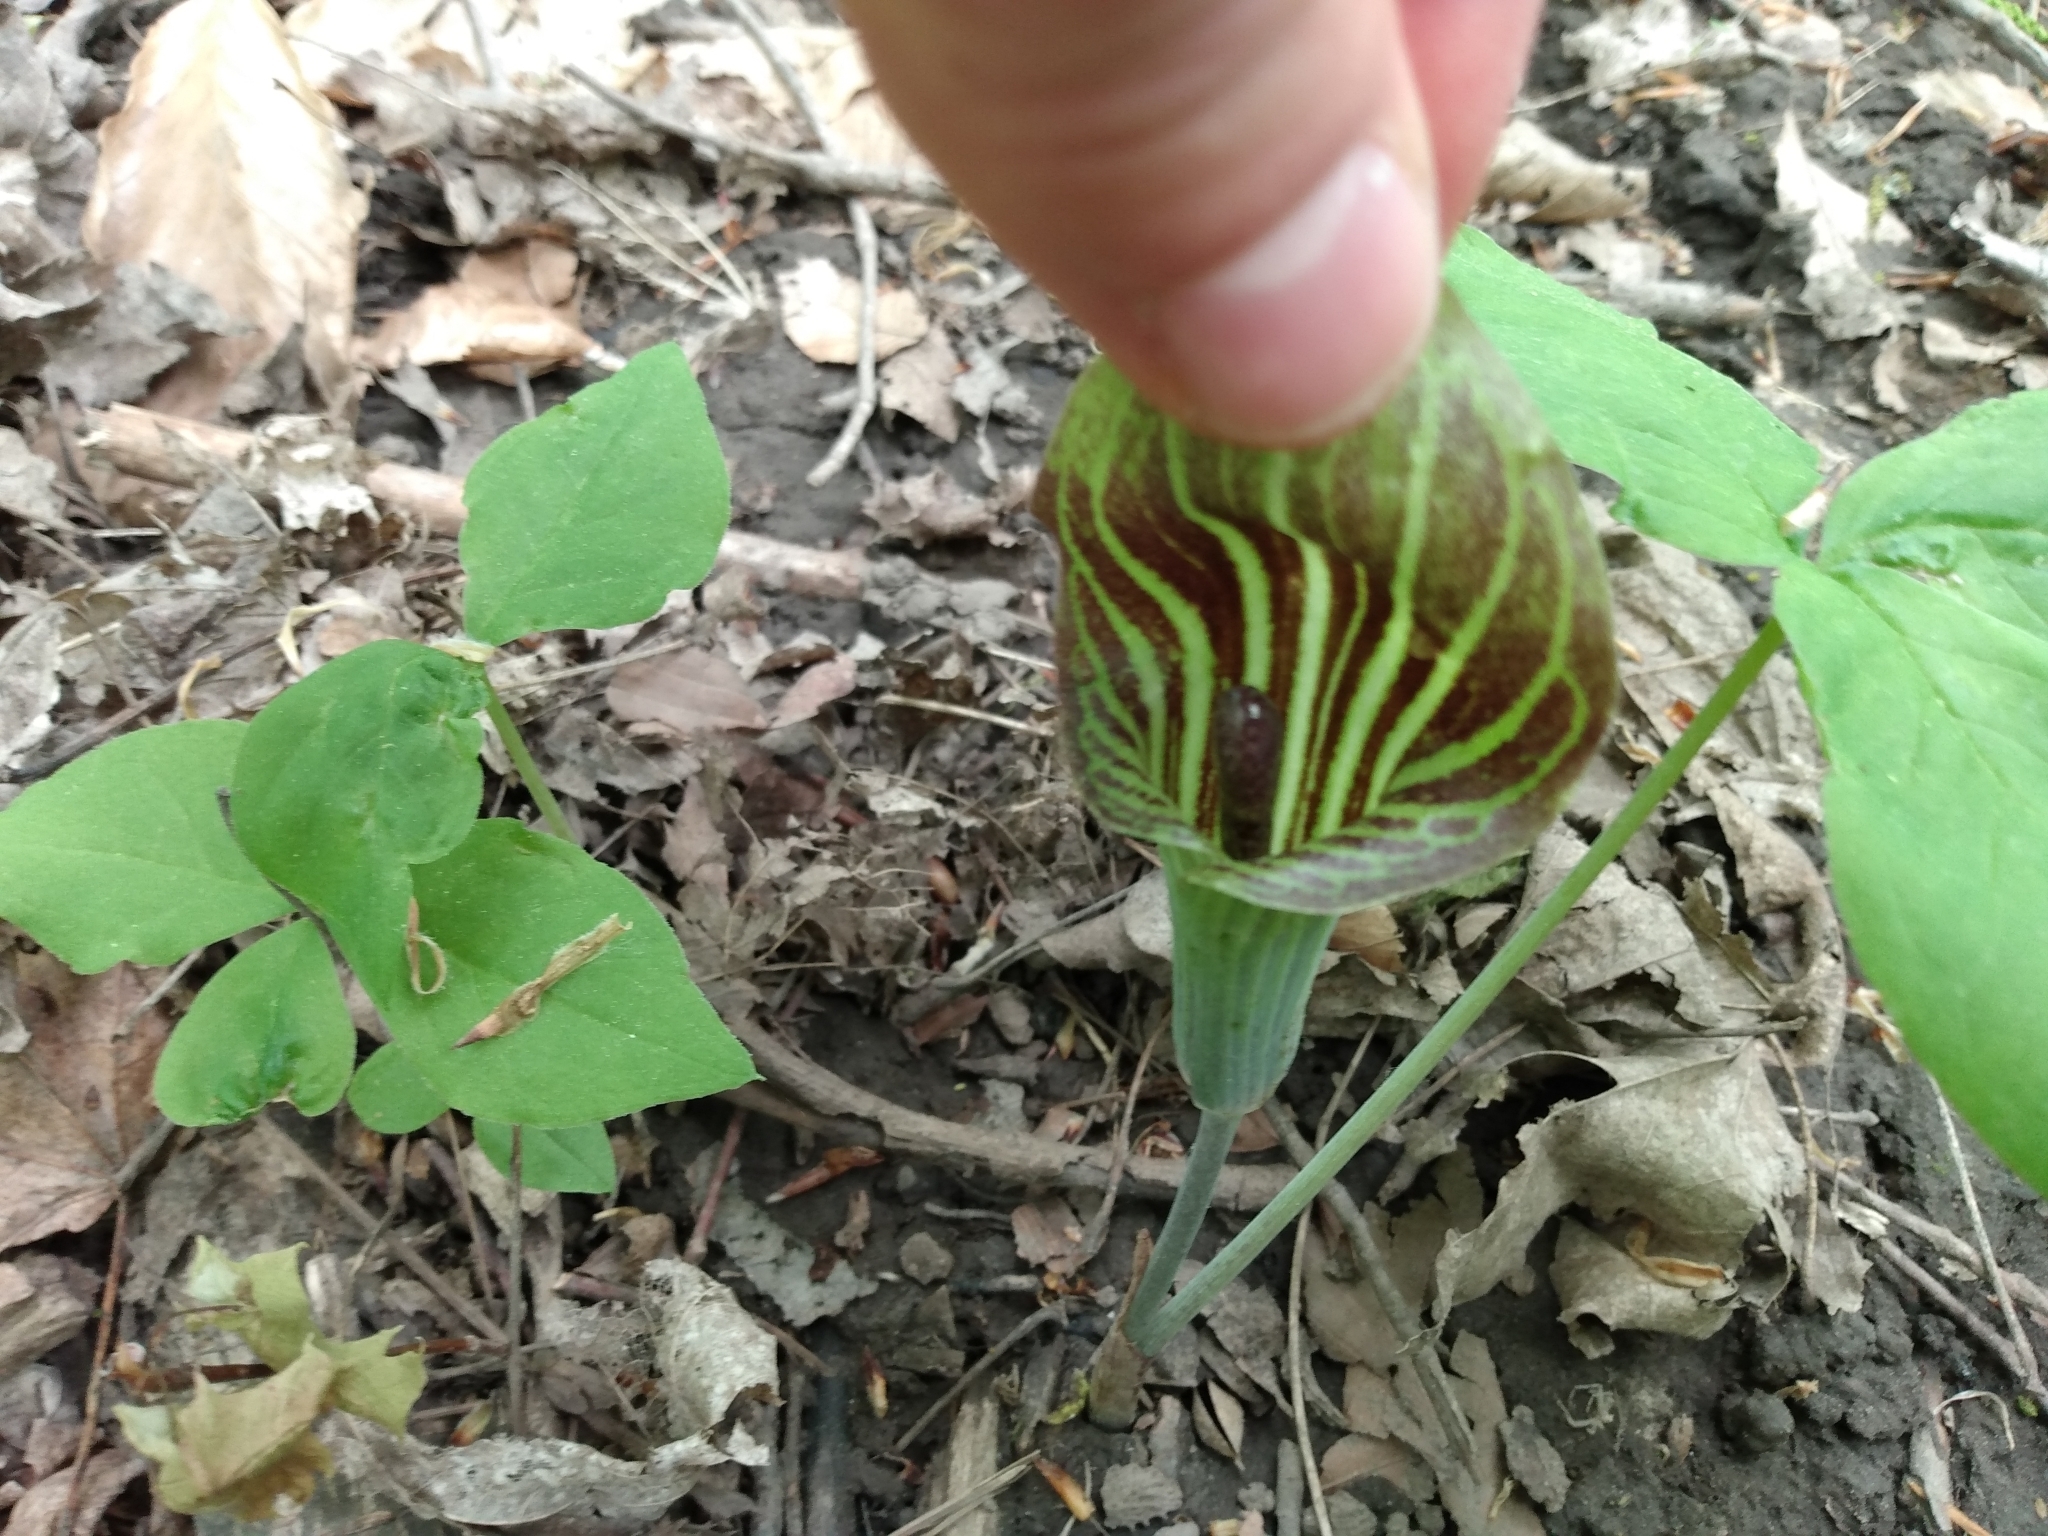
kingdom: Plantae
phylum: Tracheophyta
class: Liliopsida
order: Alismatales
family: Araceae
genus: Arisaema
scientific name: Arisaema triphyllum
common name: Jack-in-the-pulpit
